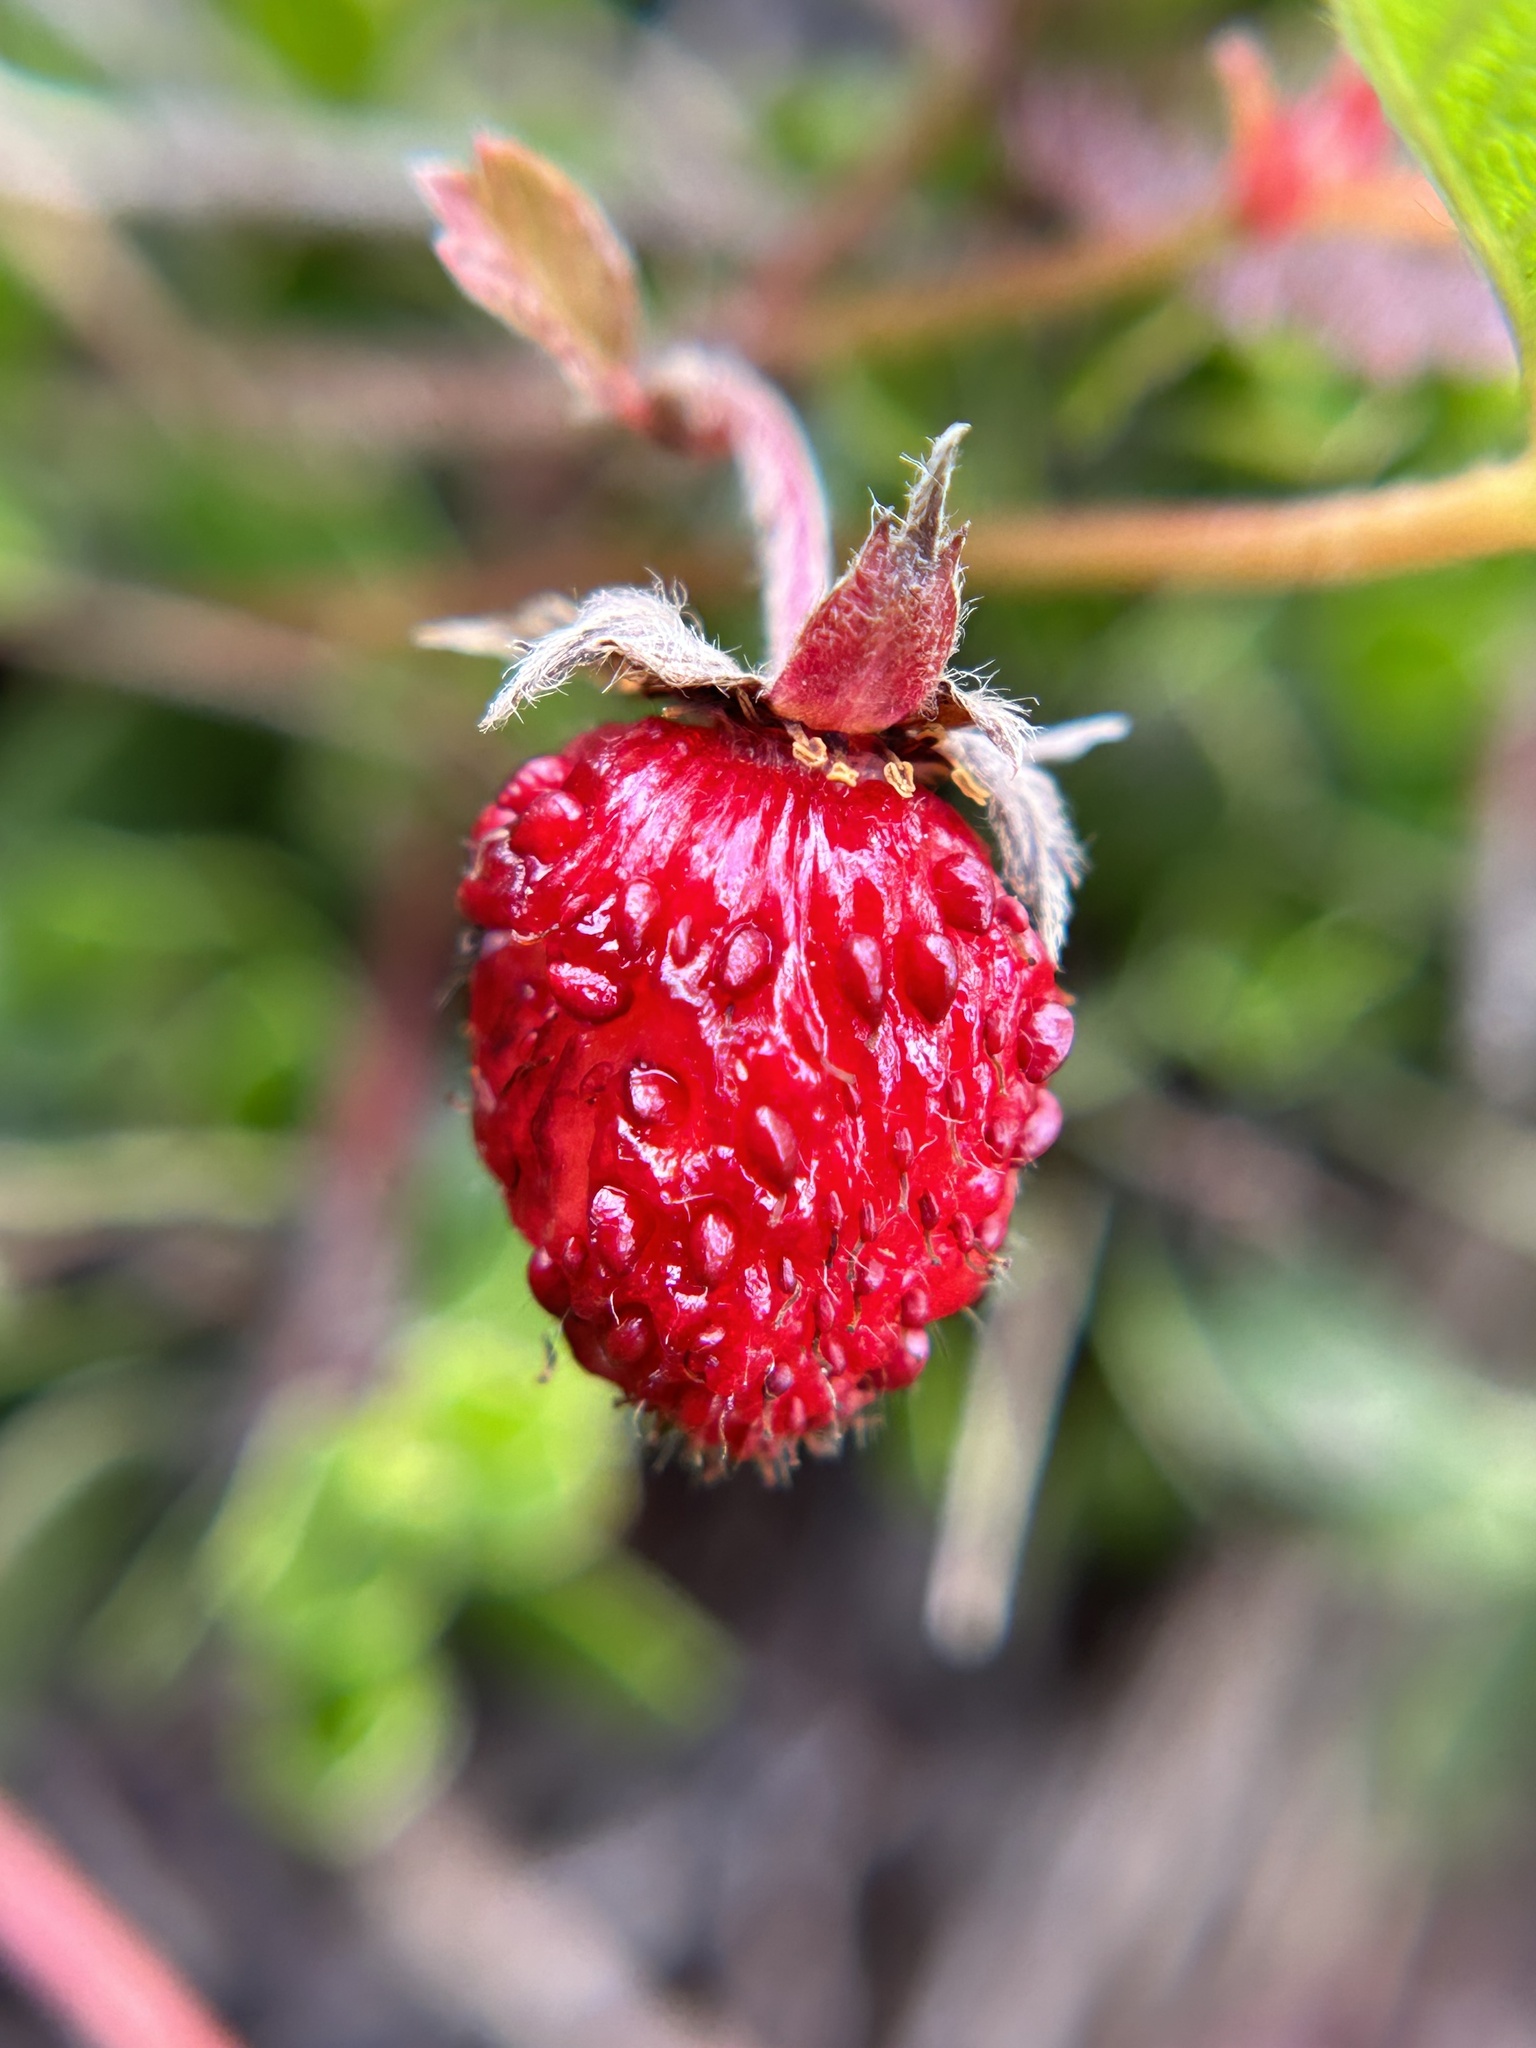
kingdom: Plantae
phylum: Tracheophyta
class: Magnoliopsida
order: Rosales
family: Rosaceae
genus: Fragaria
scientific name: Fragaria vesca
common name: Wild strawberry
